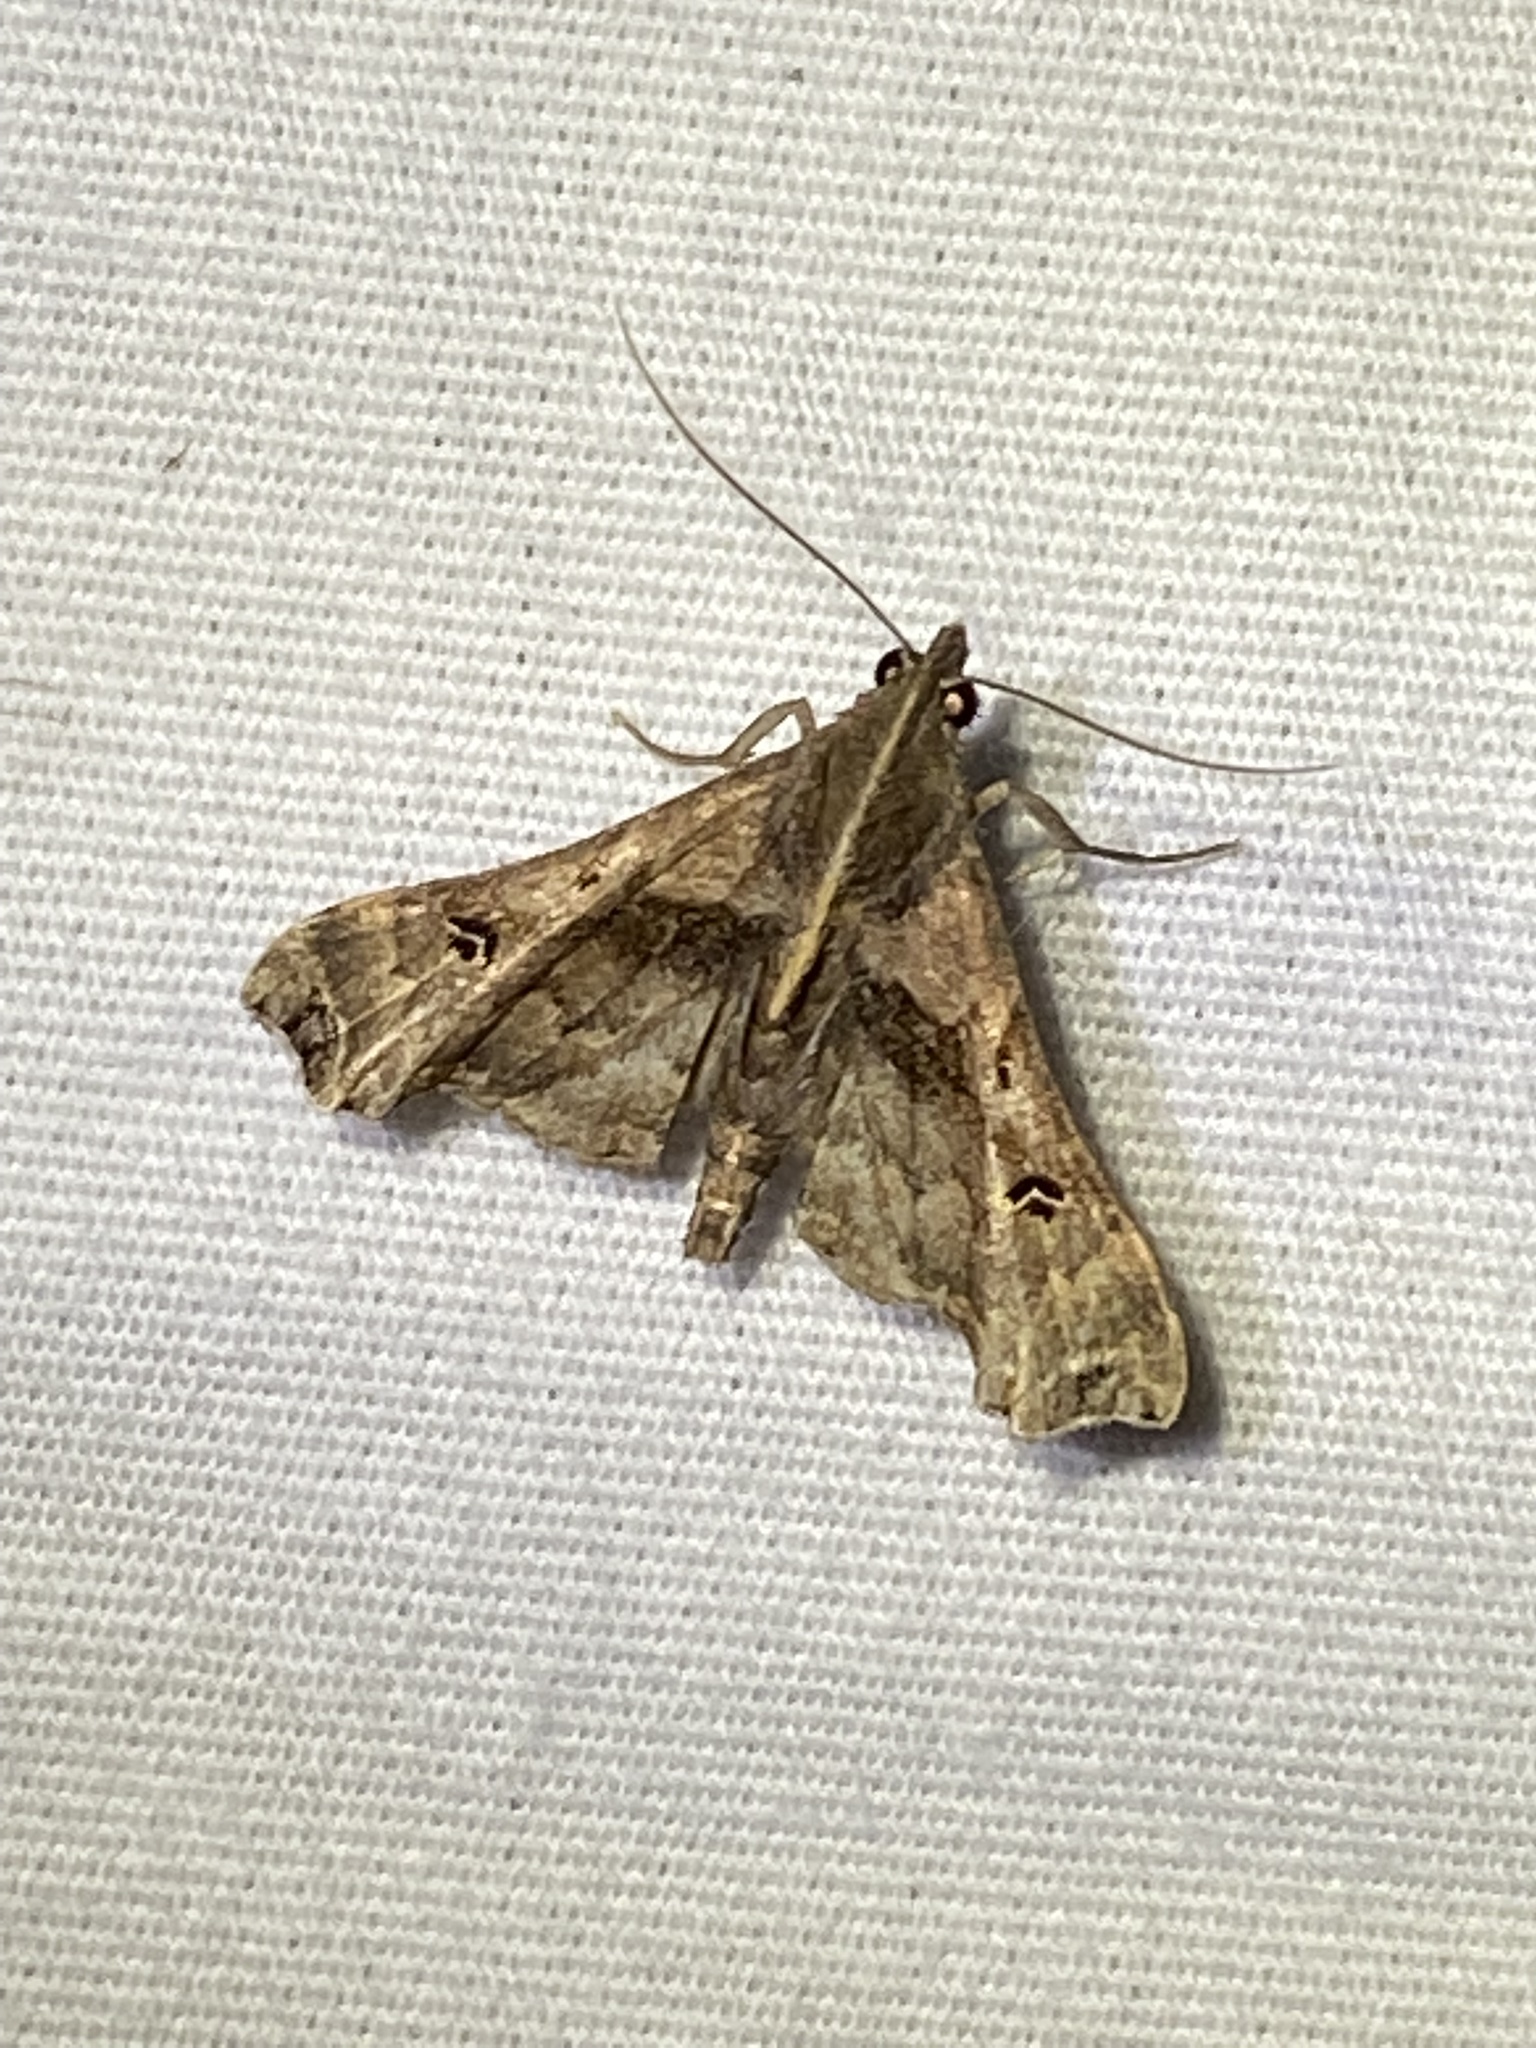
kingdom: Animalia
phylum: Arthropoda
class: Insecta
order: Lepidoptera
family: Erebidae
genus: Palthis
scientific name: Palthis asopialis
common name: Faint-spotted palthis moth
